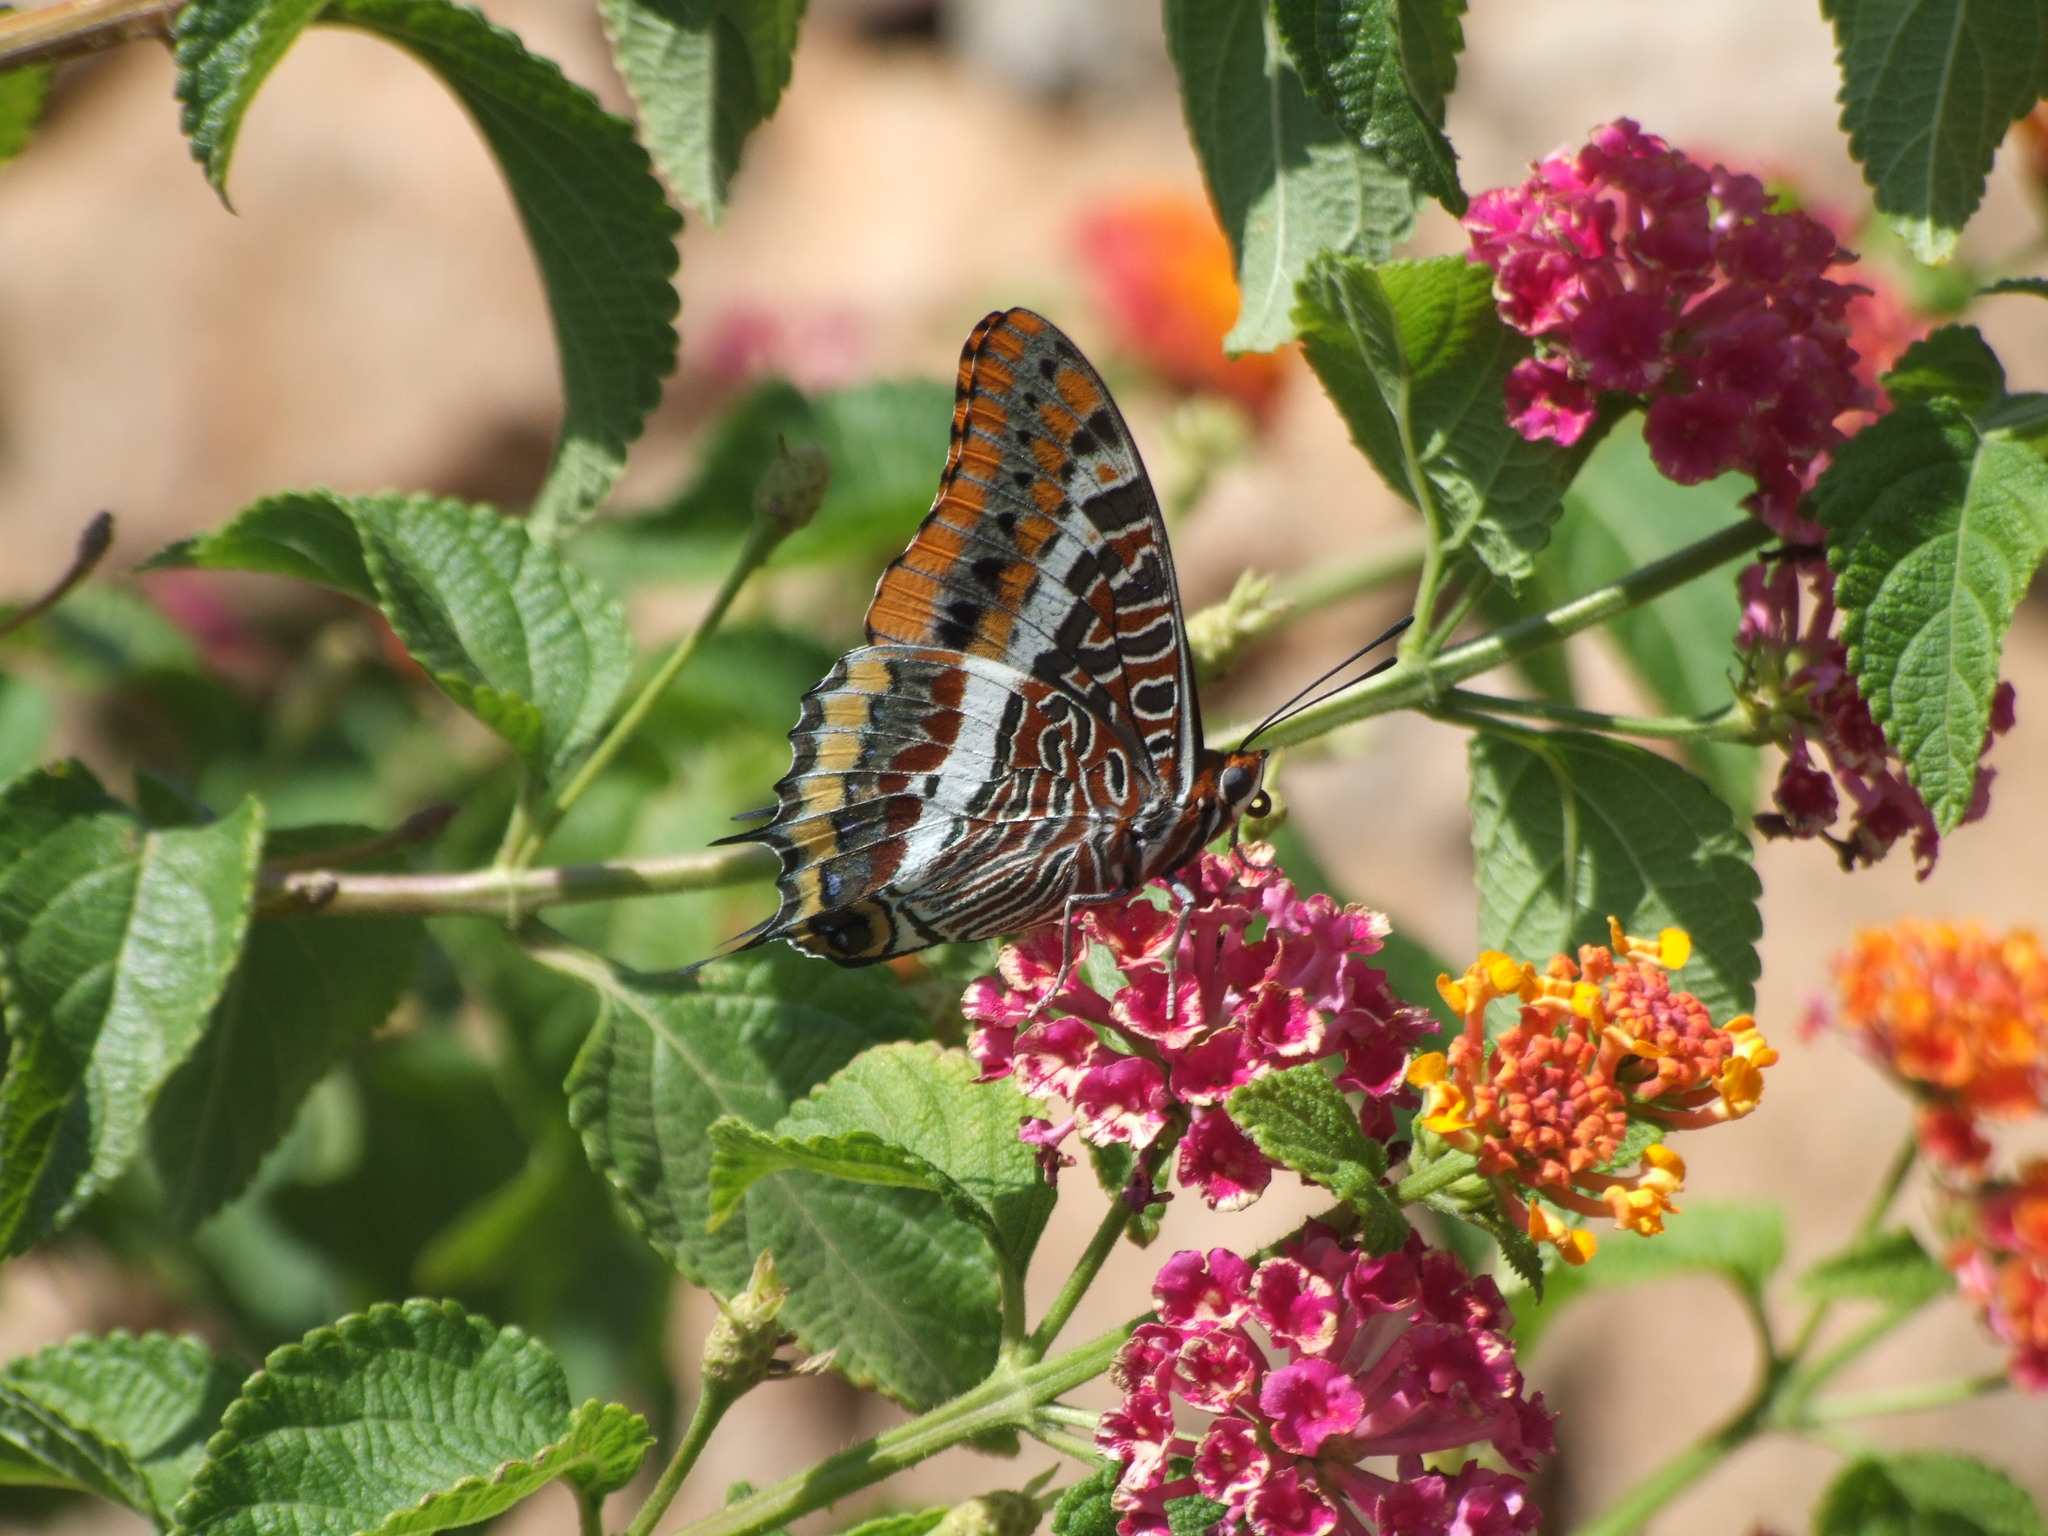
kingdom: Animalia
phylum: Arthropoda
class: Insecta
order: Lepidoptera
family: Nymphalidae
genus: Charaxes
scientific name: Charaxes jasius
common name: Two tailed pasha
